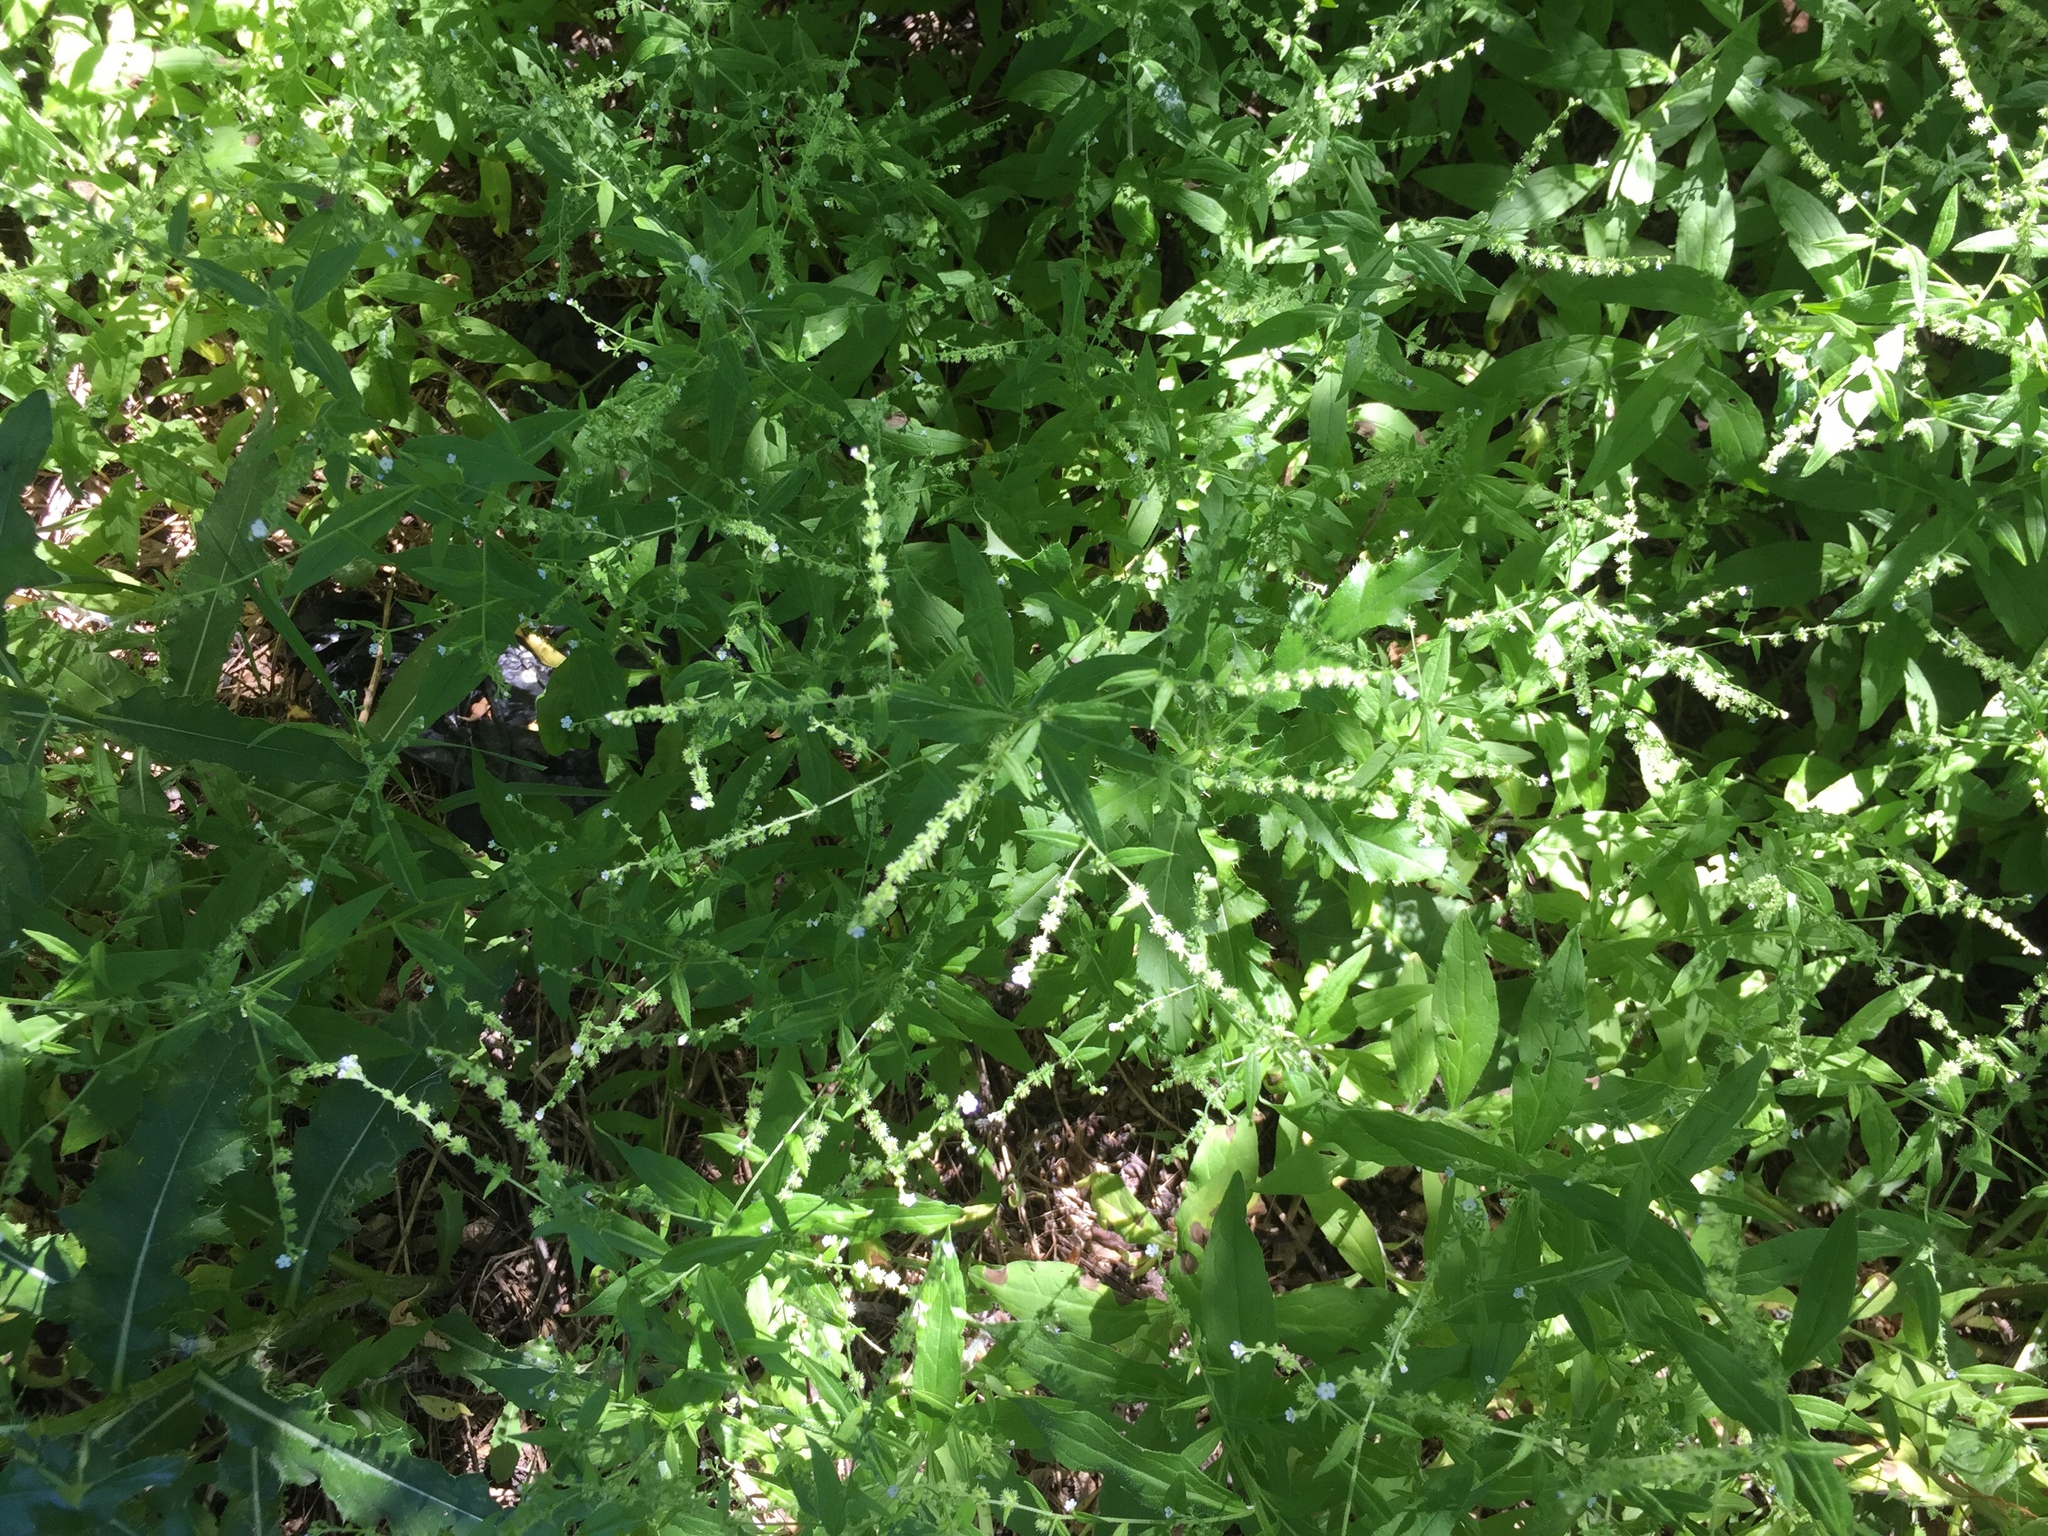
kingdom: Plantae
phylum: Tracheophyta
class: Magnoliopsida
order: Boraginales
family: Boraginaceae
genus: Hackelia
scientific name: Hackelia deflexa
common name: Nodding stickseed
